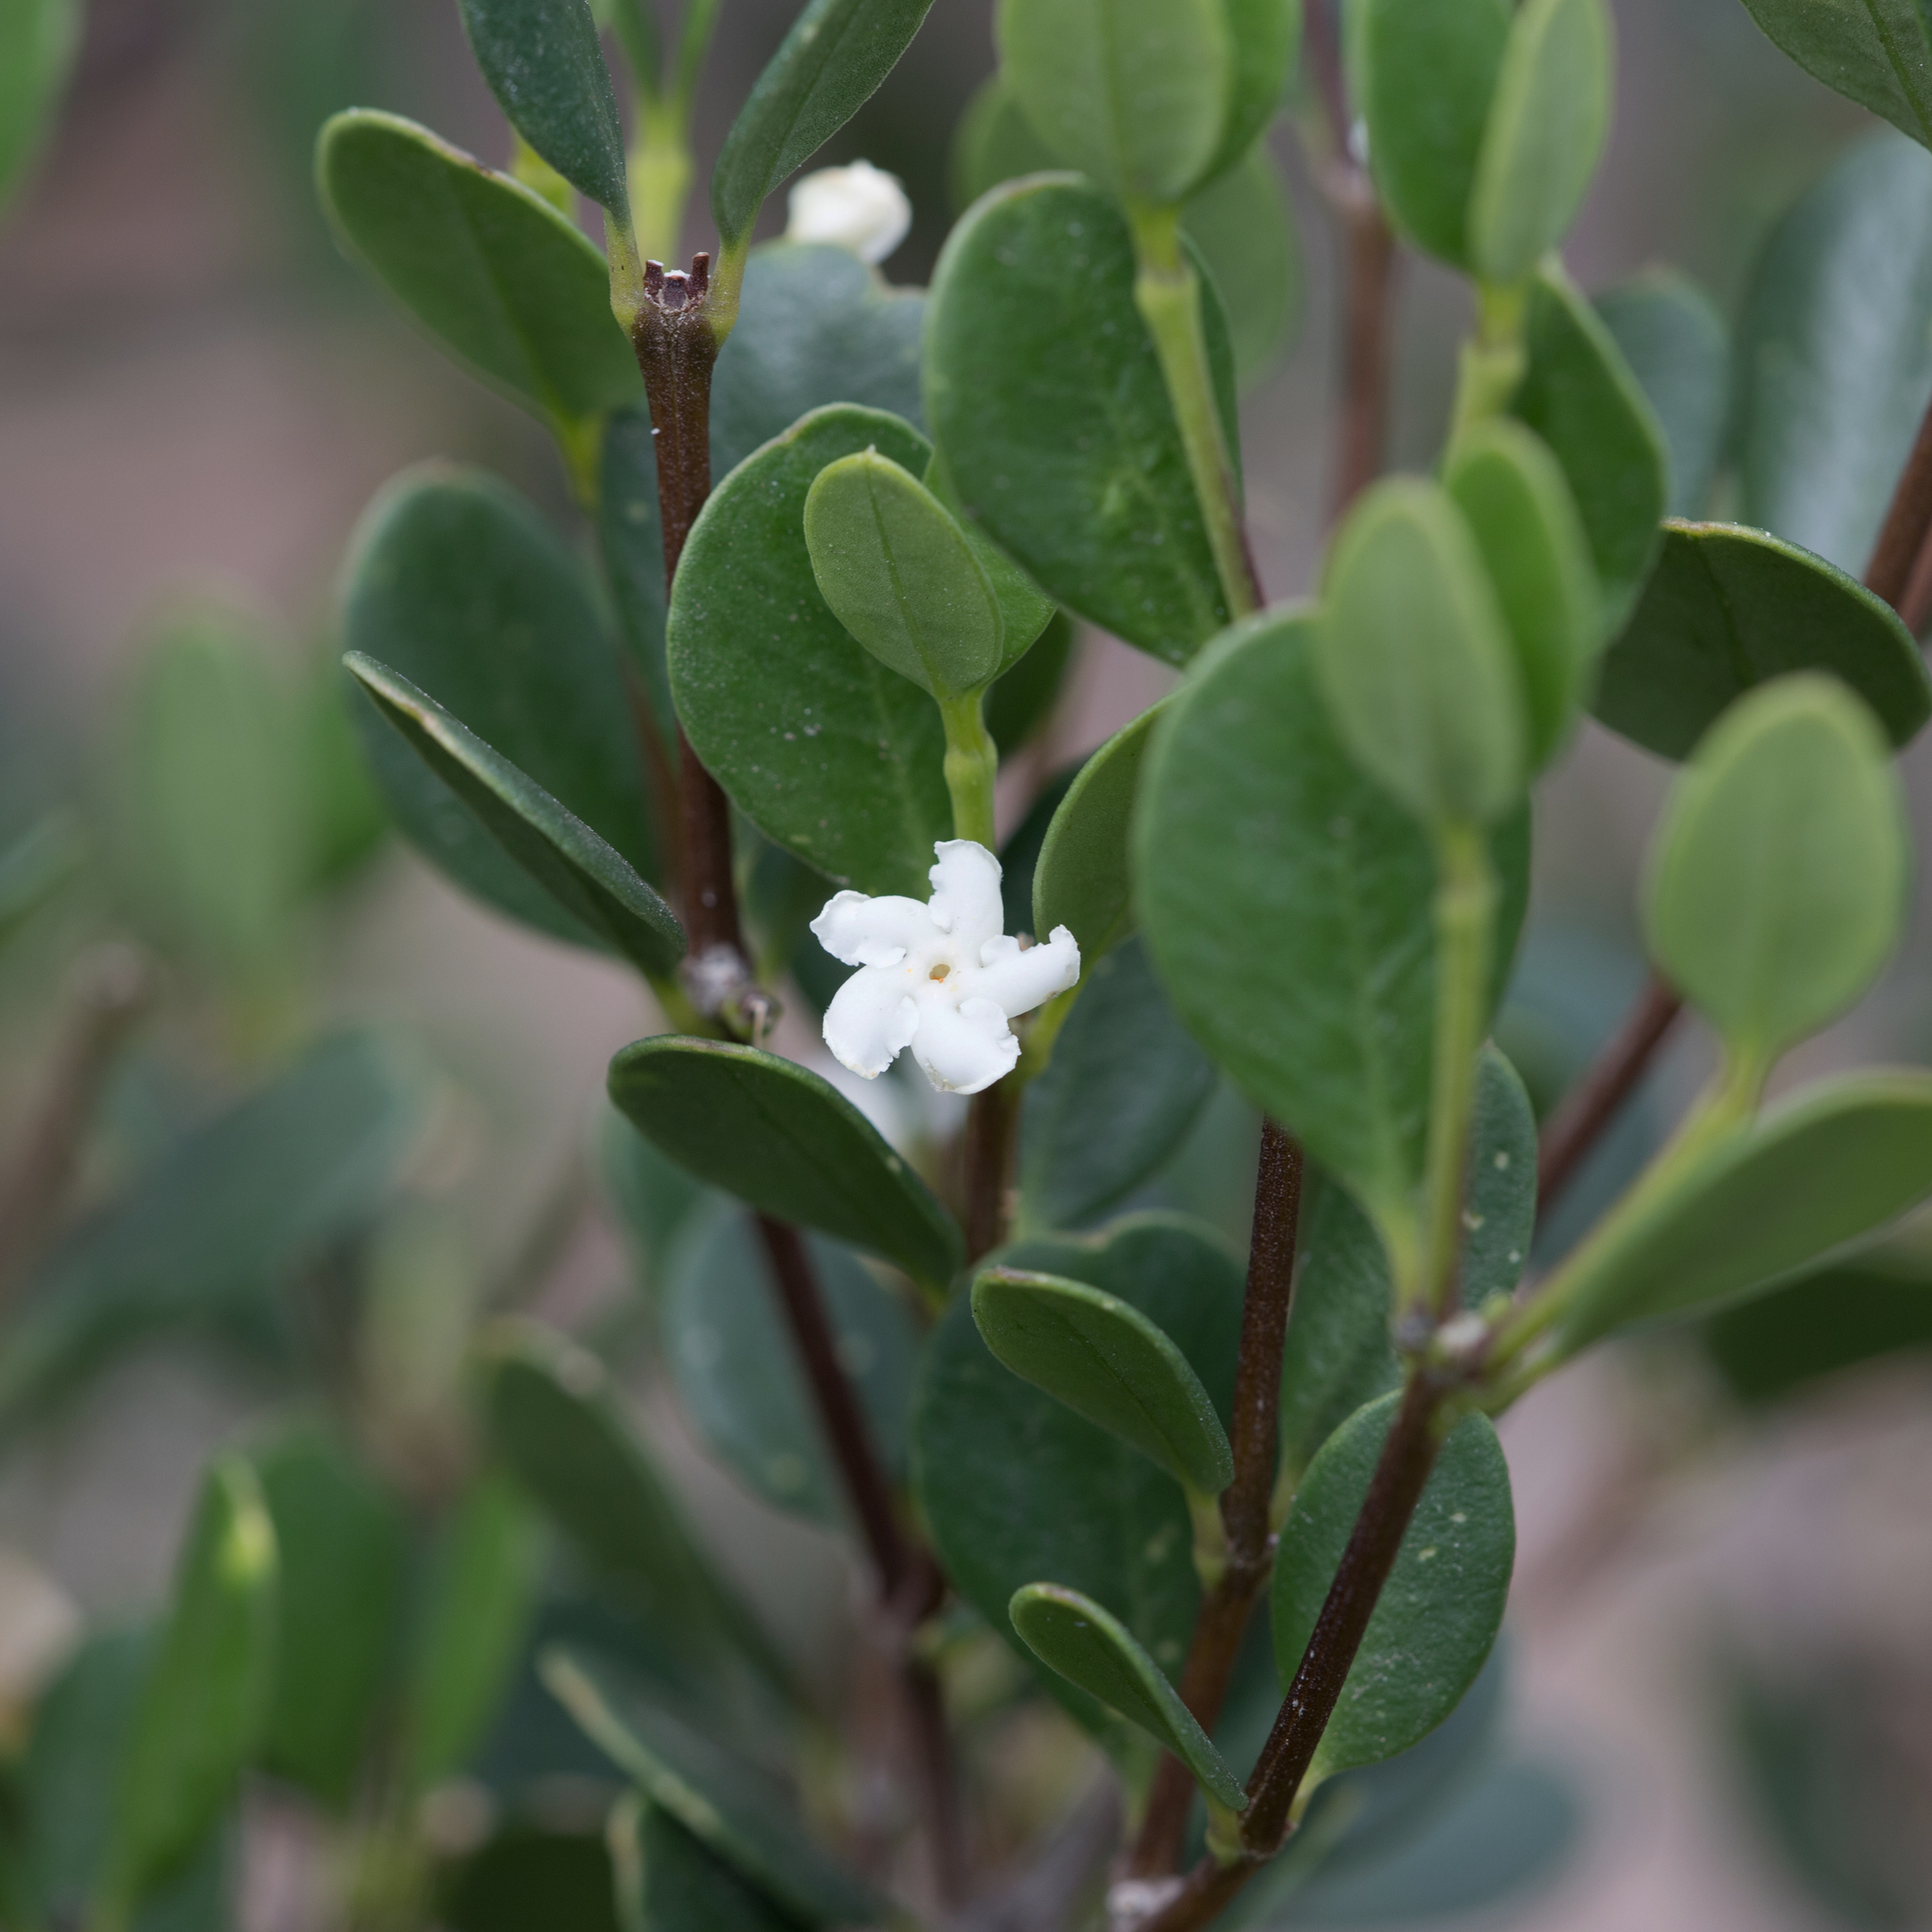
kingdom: Plantae
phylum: Tracheophyta
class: Magnoliopsida
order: Gentianales
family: Apocynaceae
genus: Alyxia
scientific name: Alyxia buxifolia
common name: Dysentery-bush
